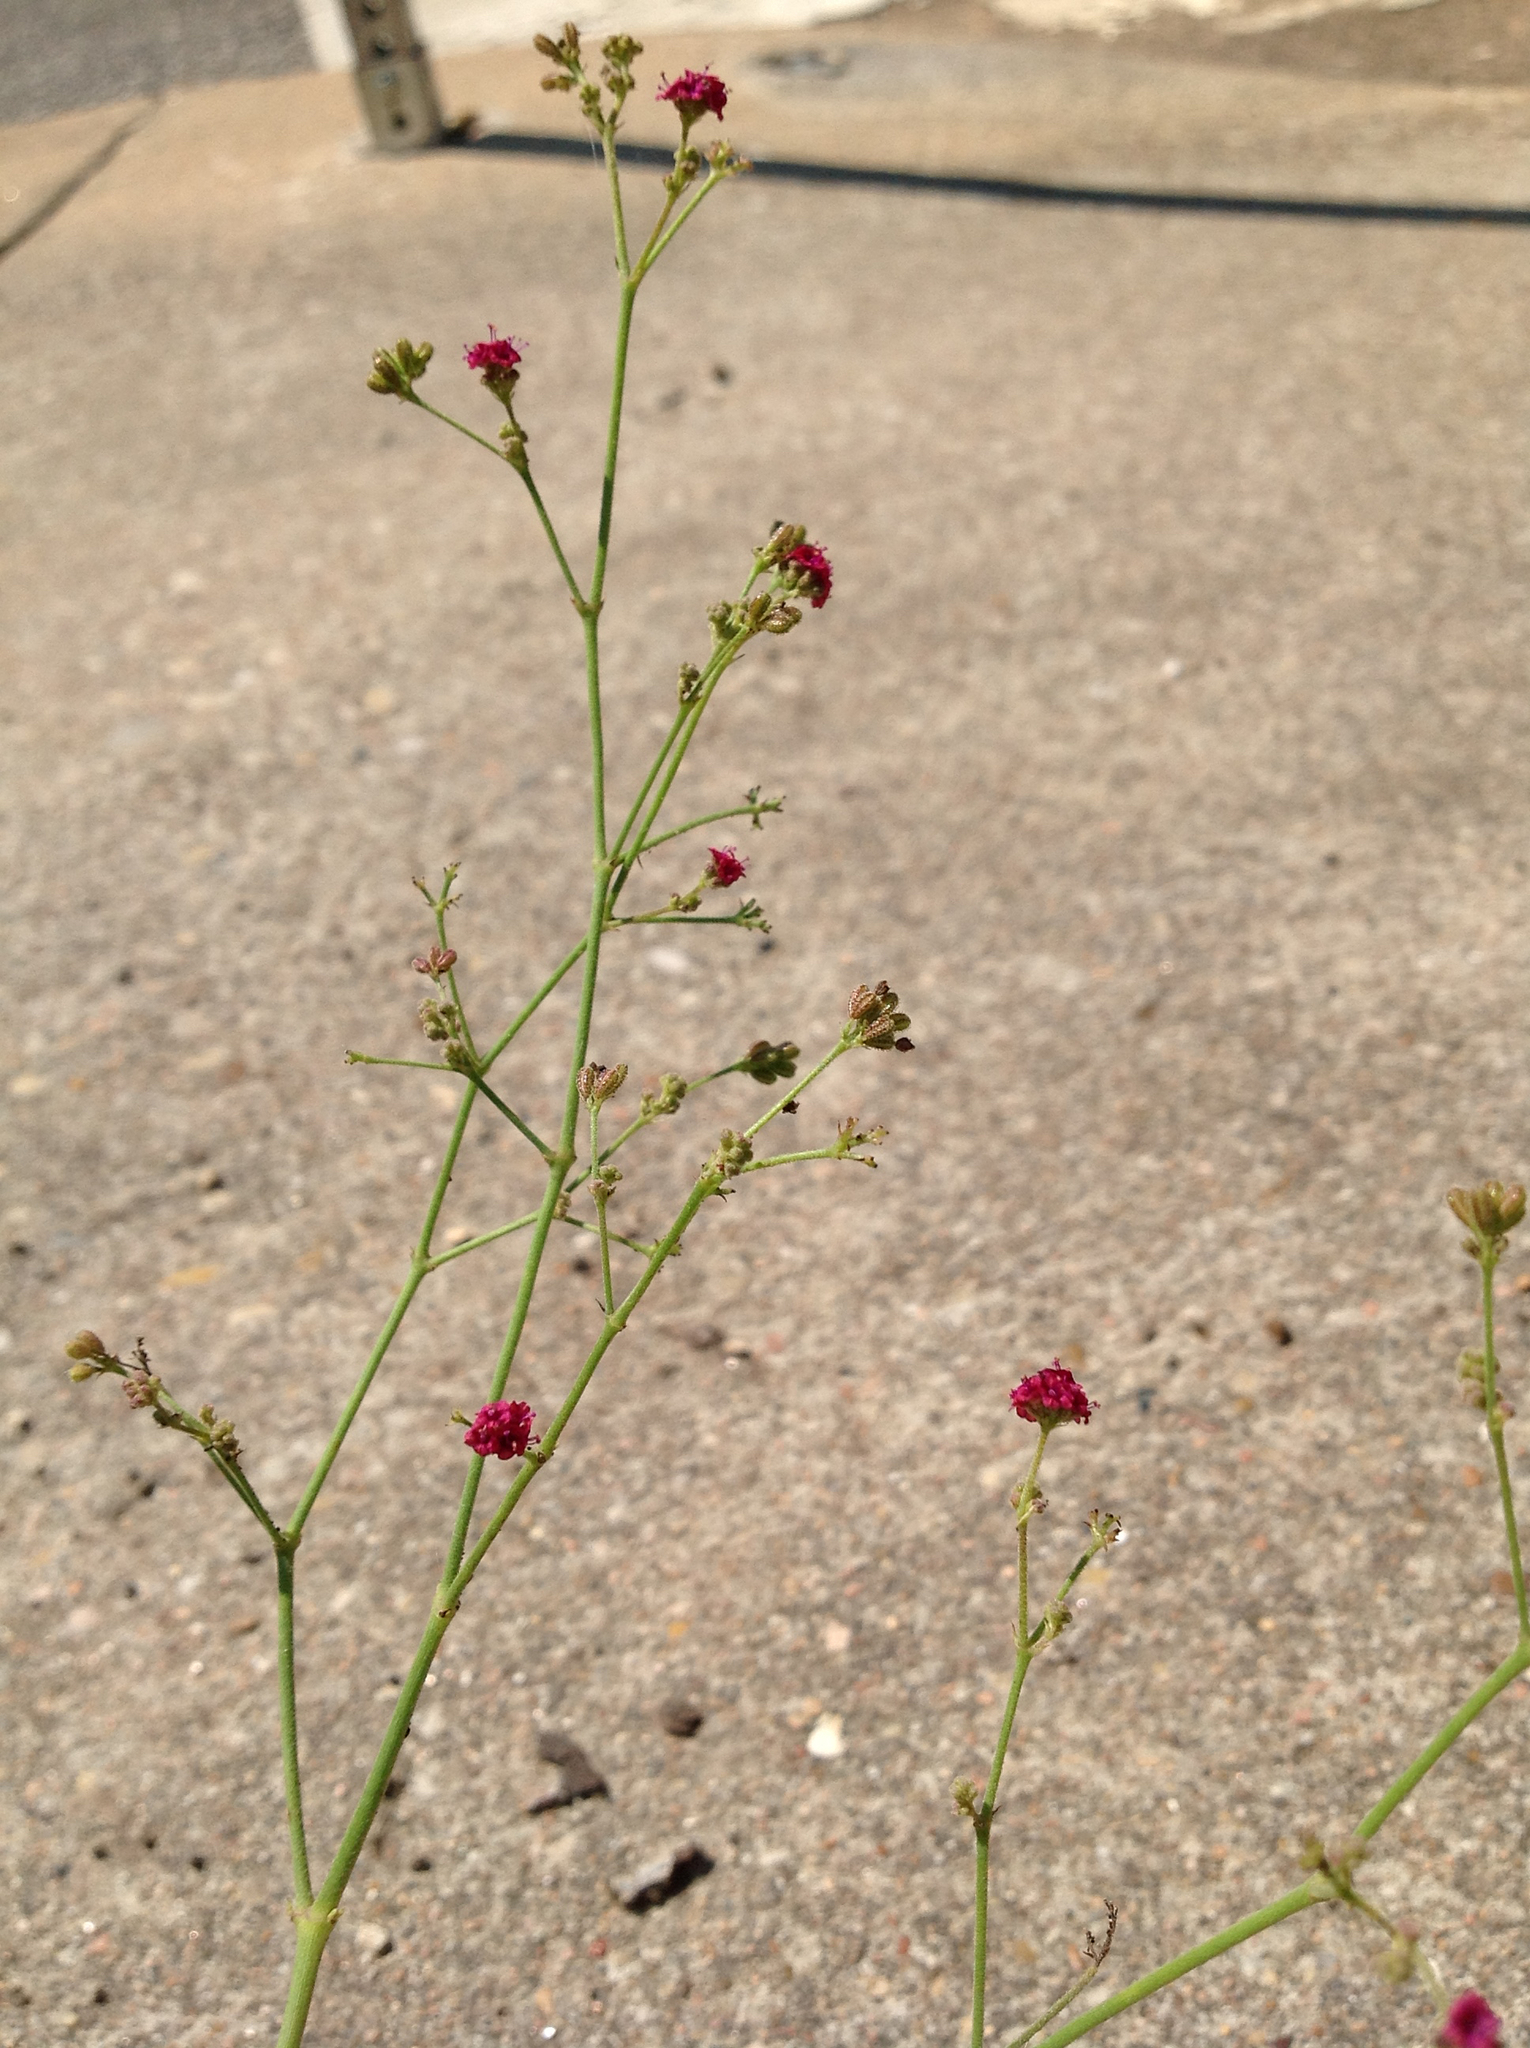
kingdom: Plantae
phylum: Tracheophyta
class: Magnoliopsida
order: Caryophyllales
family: Nyctaginaceae
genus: Boerhavia
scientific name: Boerhavia coccinea
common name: Scarlet spiderling
